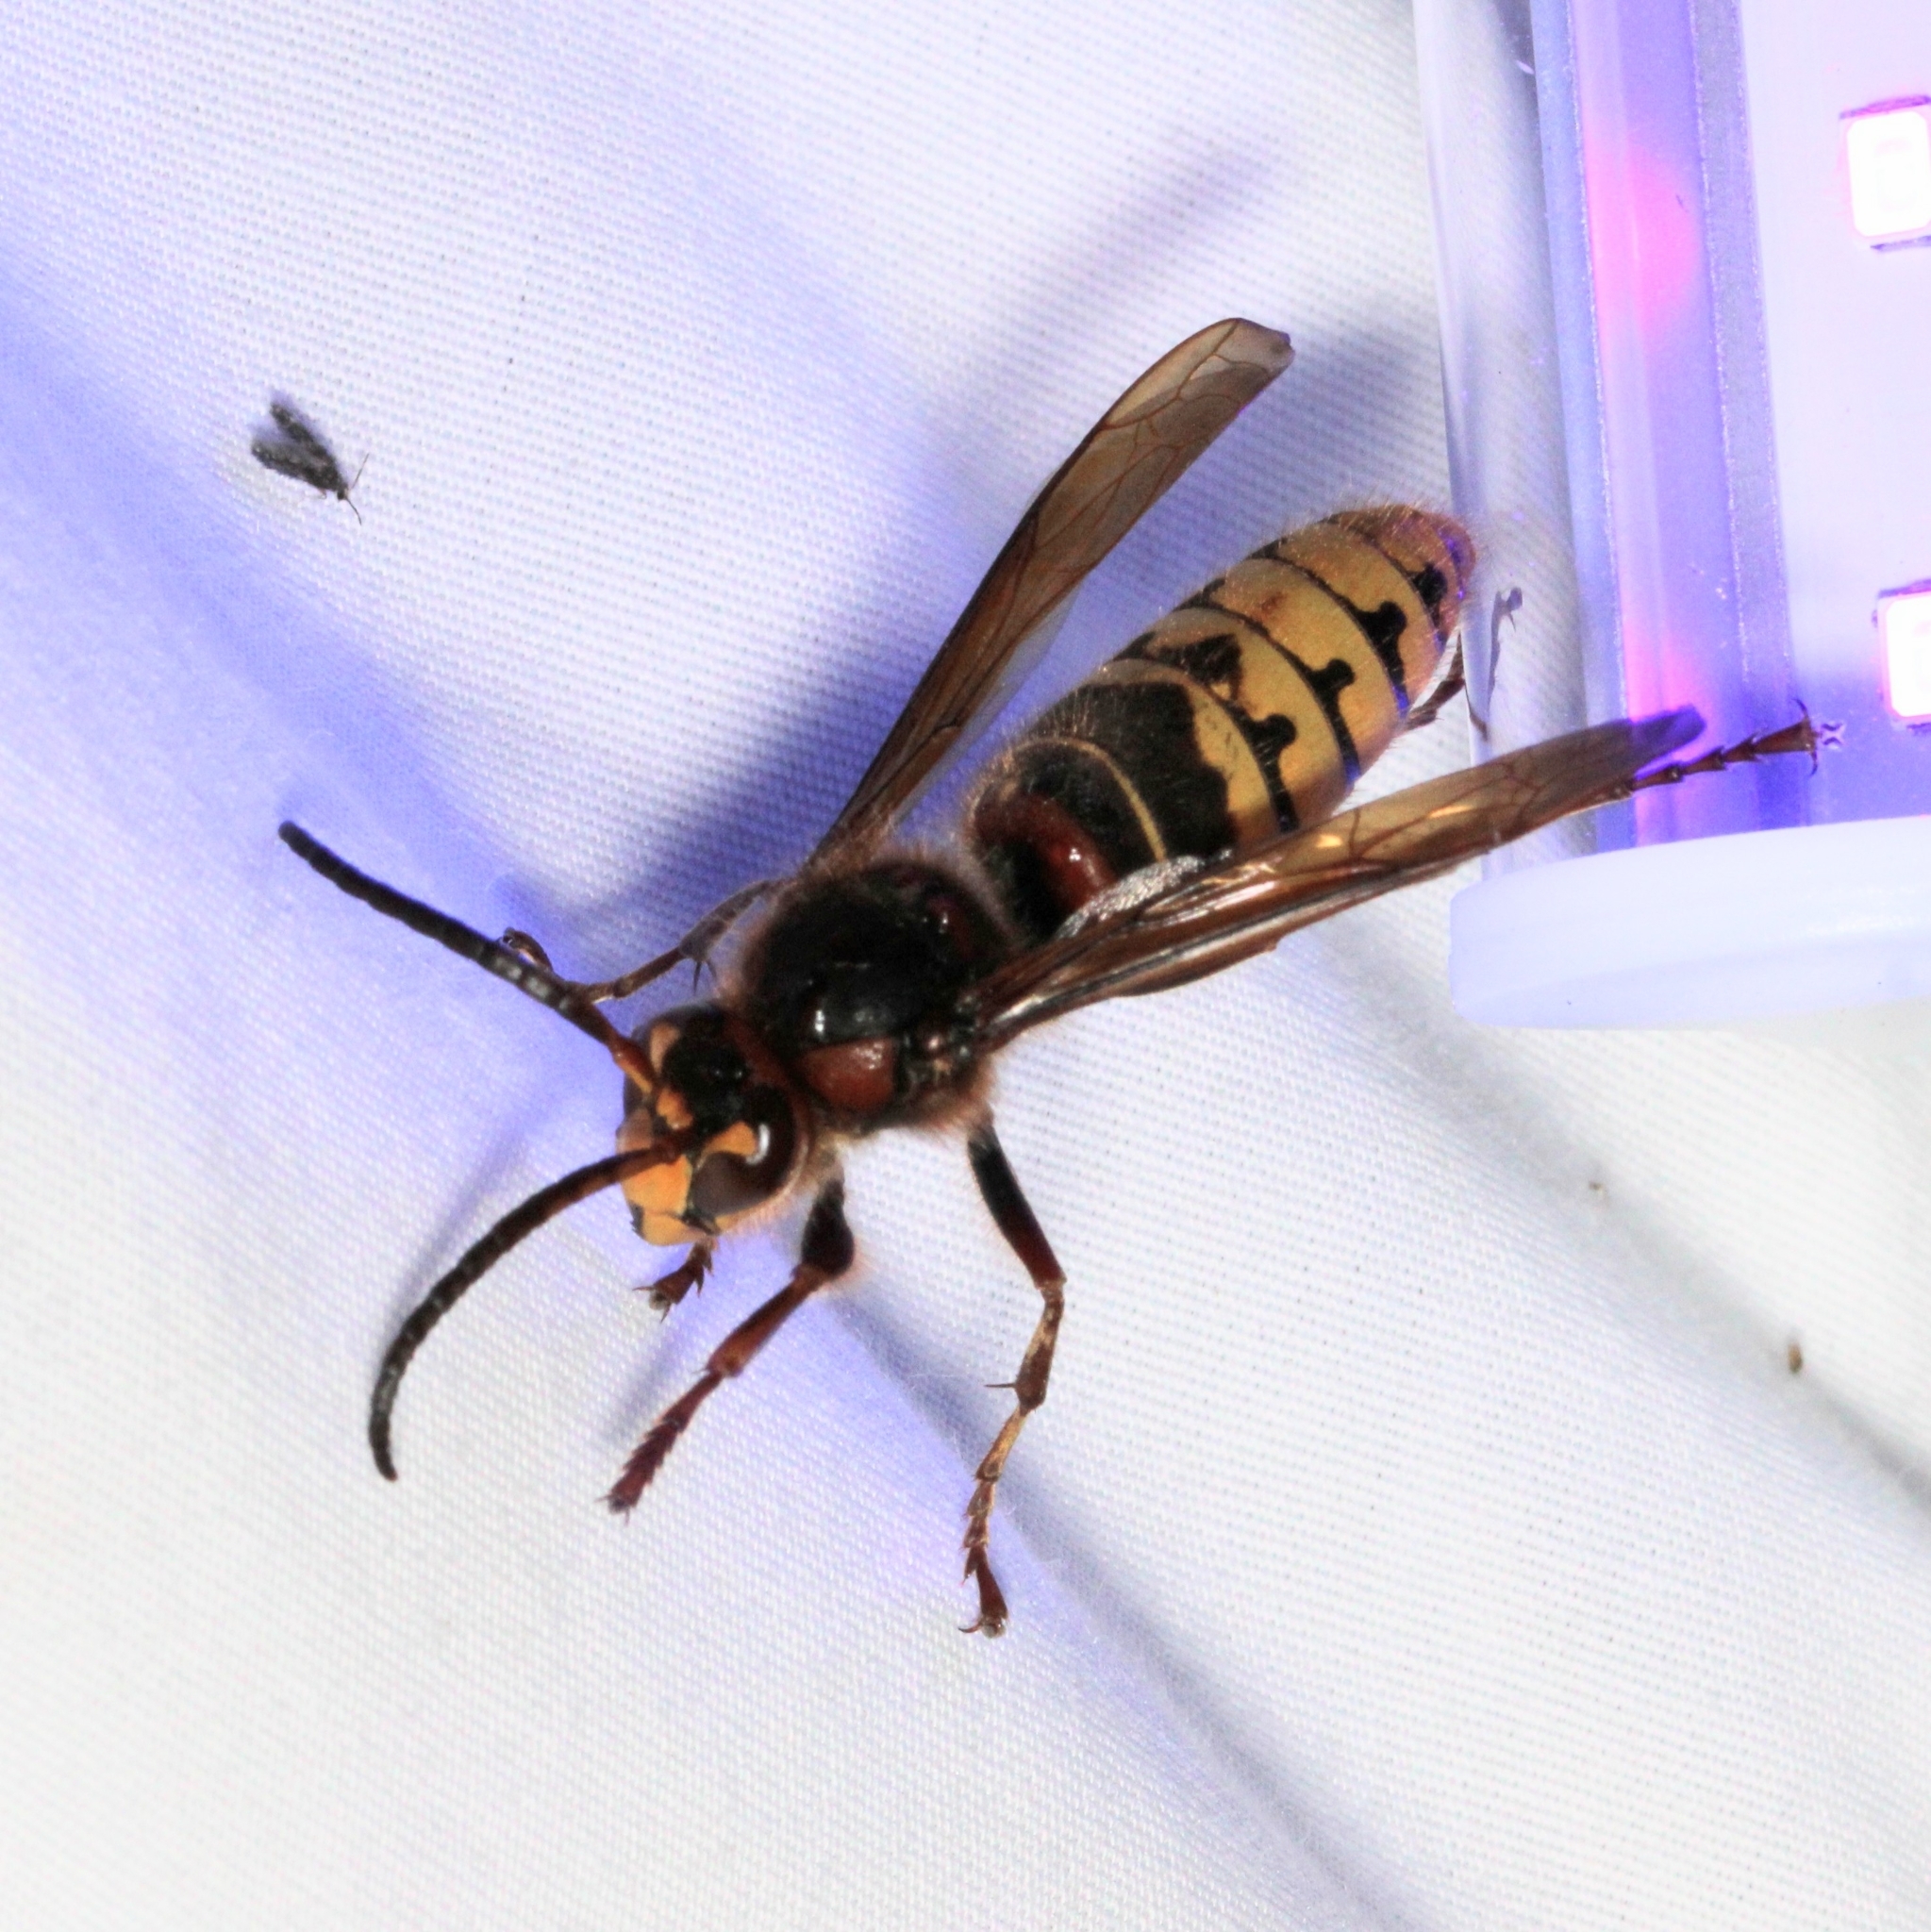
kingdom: Animalia
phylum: Arthropoda
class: Insecta
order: Hymenoptera
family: Vespidae
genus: Vespa
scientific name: Vespa crabro
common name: Hornet
